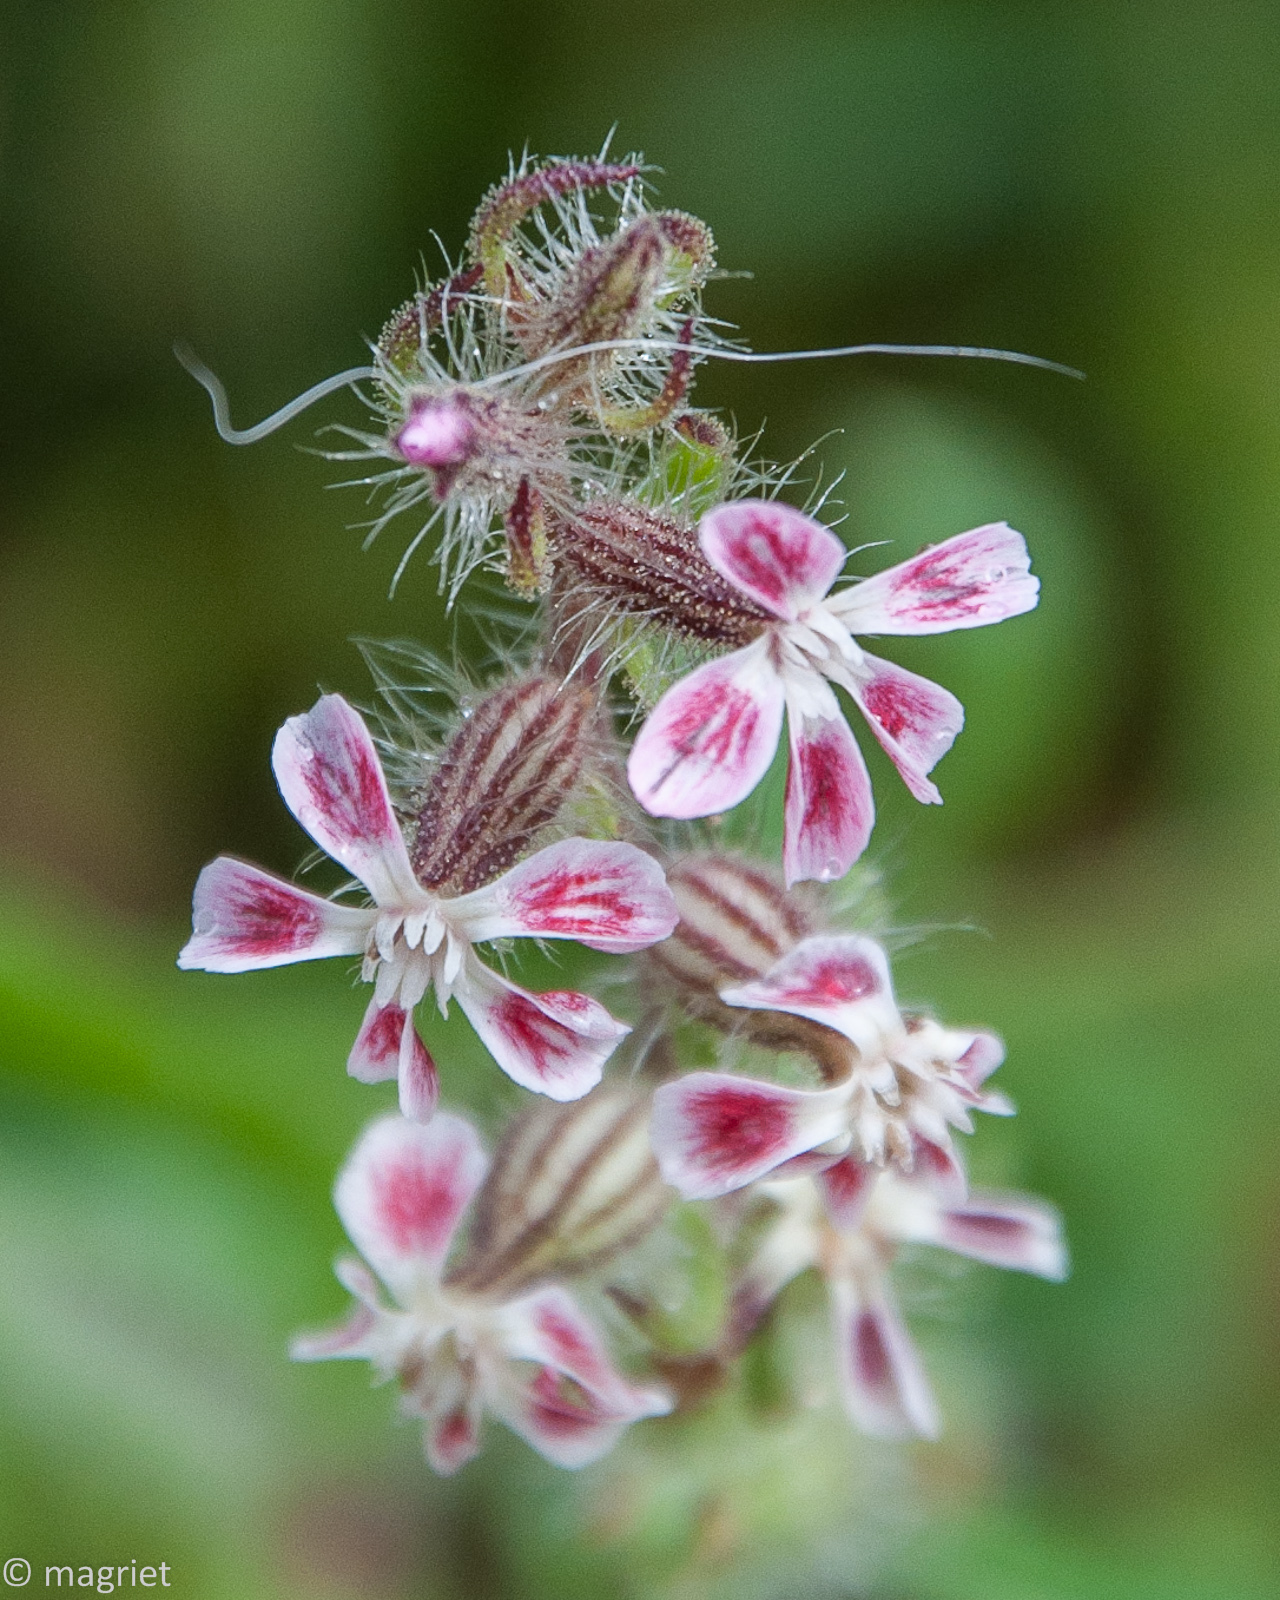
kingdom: Plantae
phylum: Tracheophyta
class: Magnoliopsida
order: Caryophyllales
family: Caryophyllaceae
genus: Silene
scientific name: Silene gallica
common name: Small-flowered catchfly
